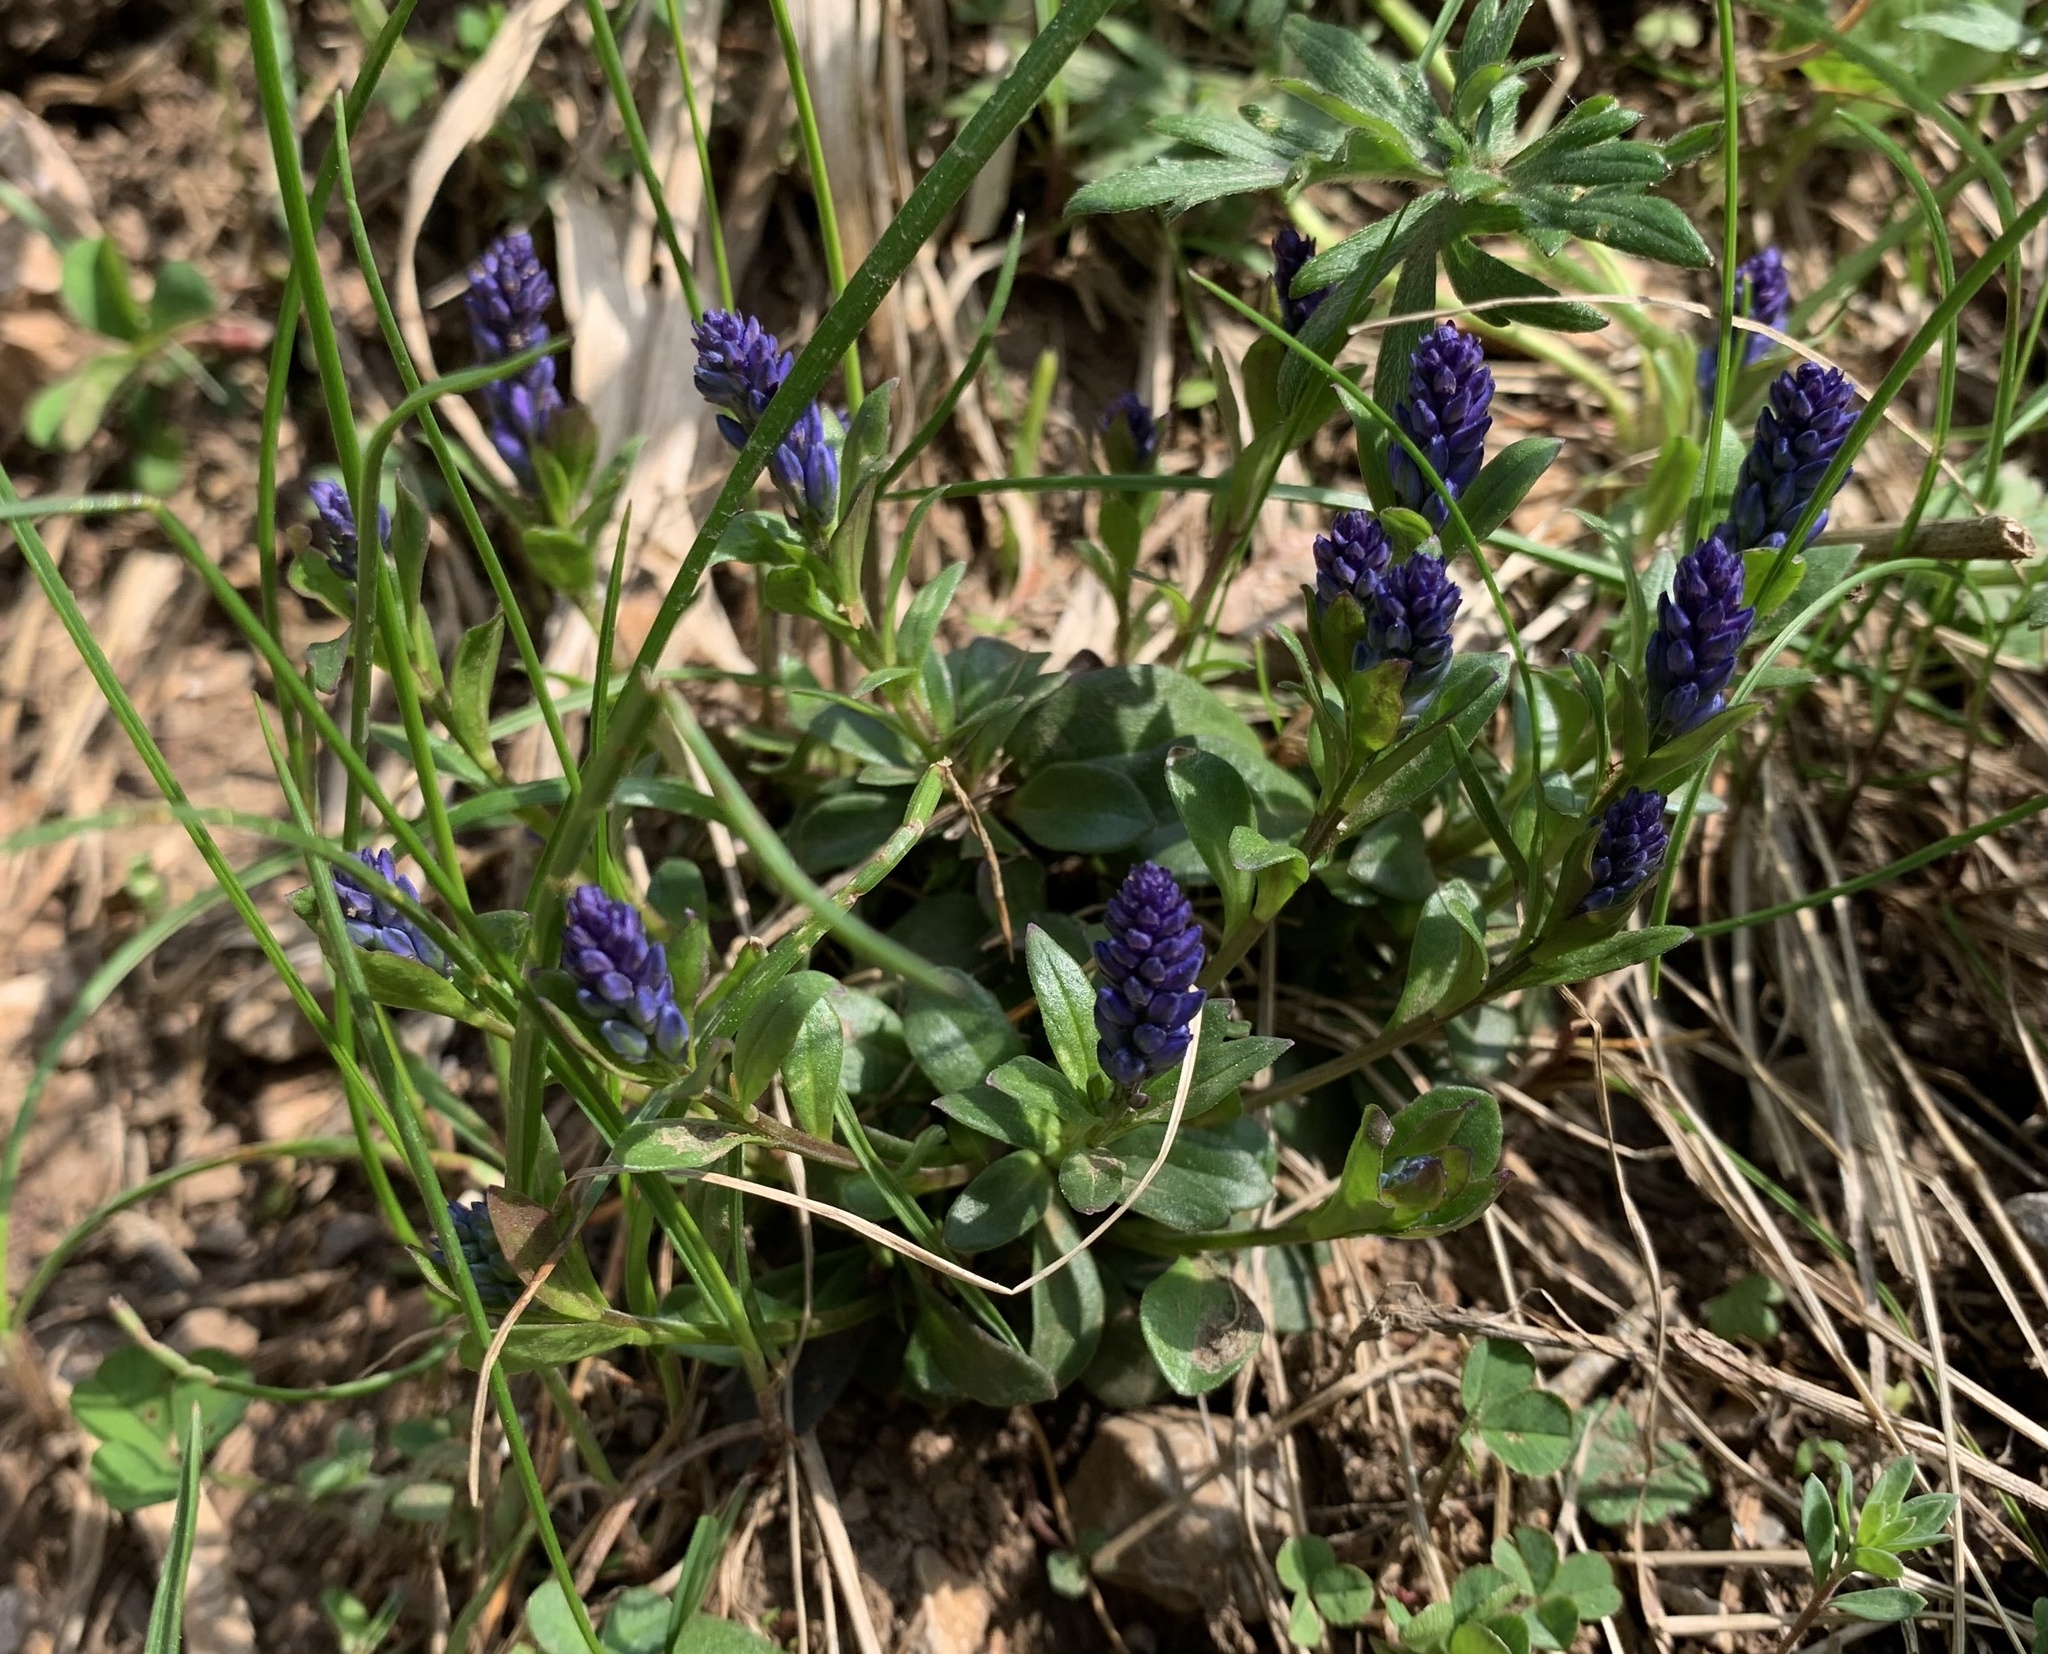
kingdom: Plantae
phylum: Tracheophyta
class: Magnoliopsida
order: Fabales
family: Polygalaceae
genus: Polygala
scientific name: Polygala alpestris
